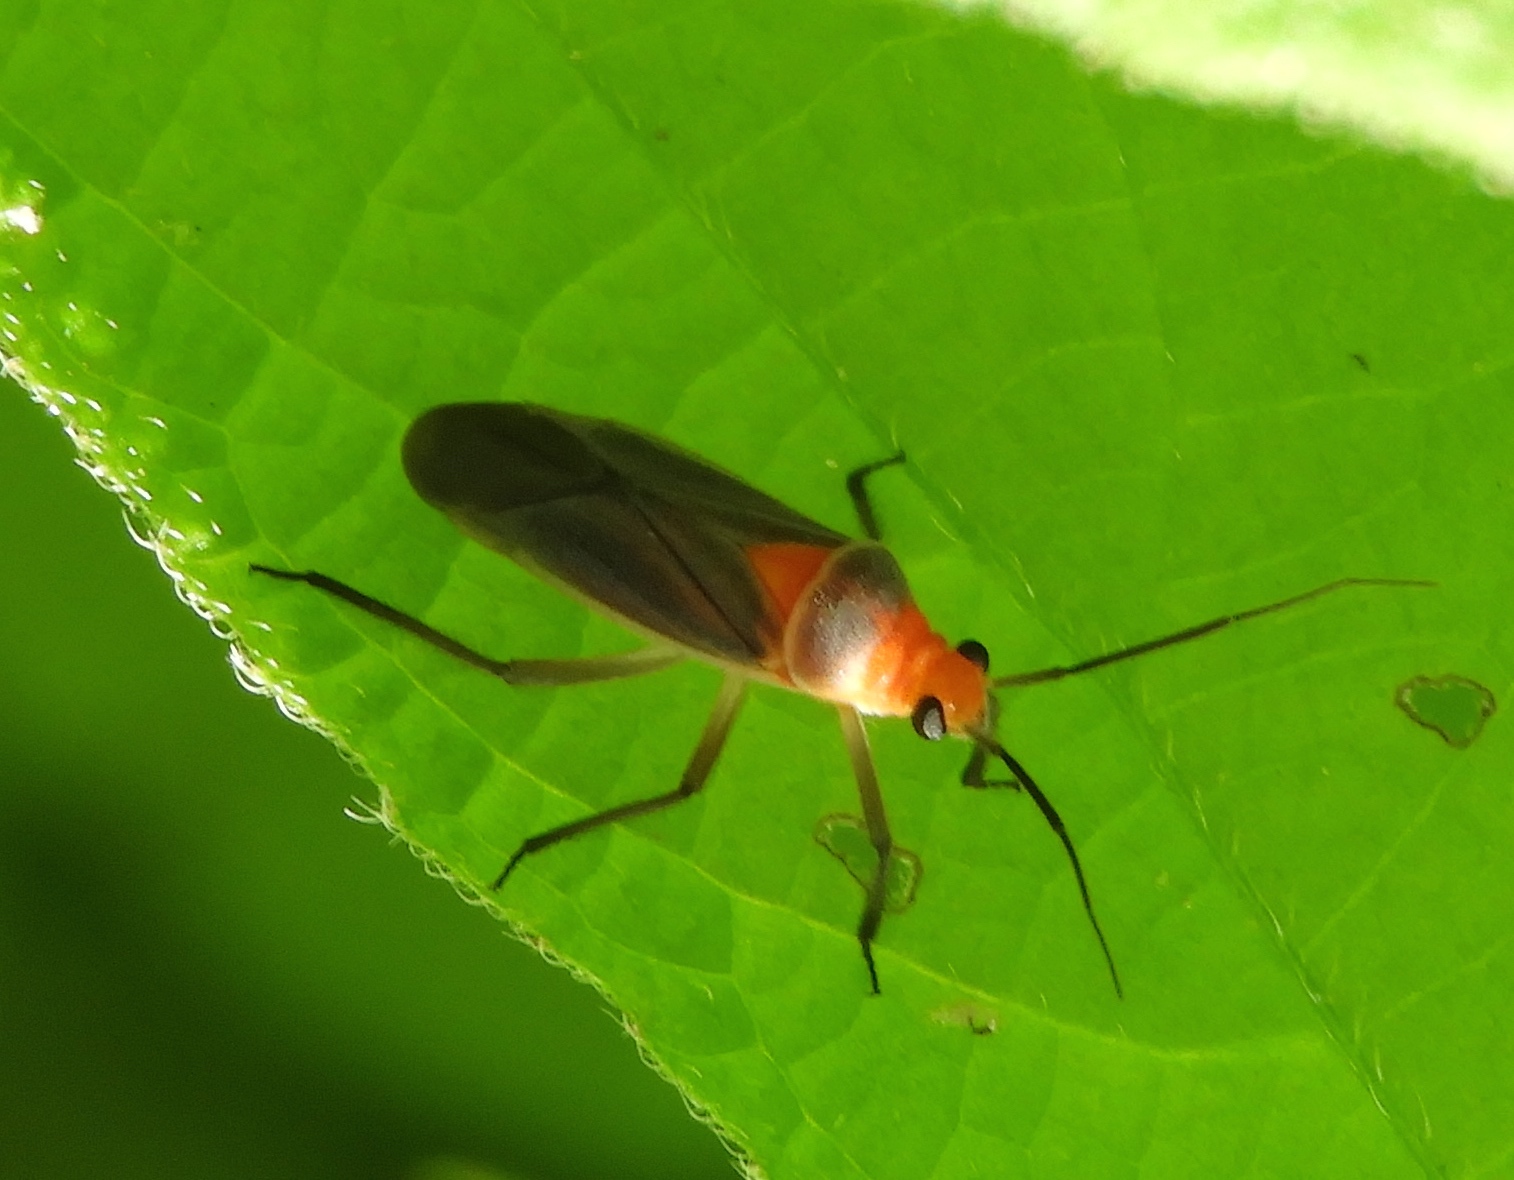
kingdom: Animalia
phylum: Arthropoda
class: Insecta
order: Hemiptera
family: Miridae
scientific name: Miridae
